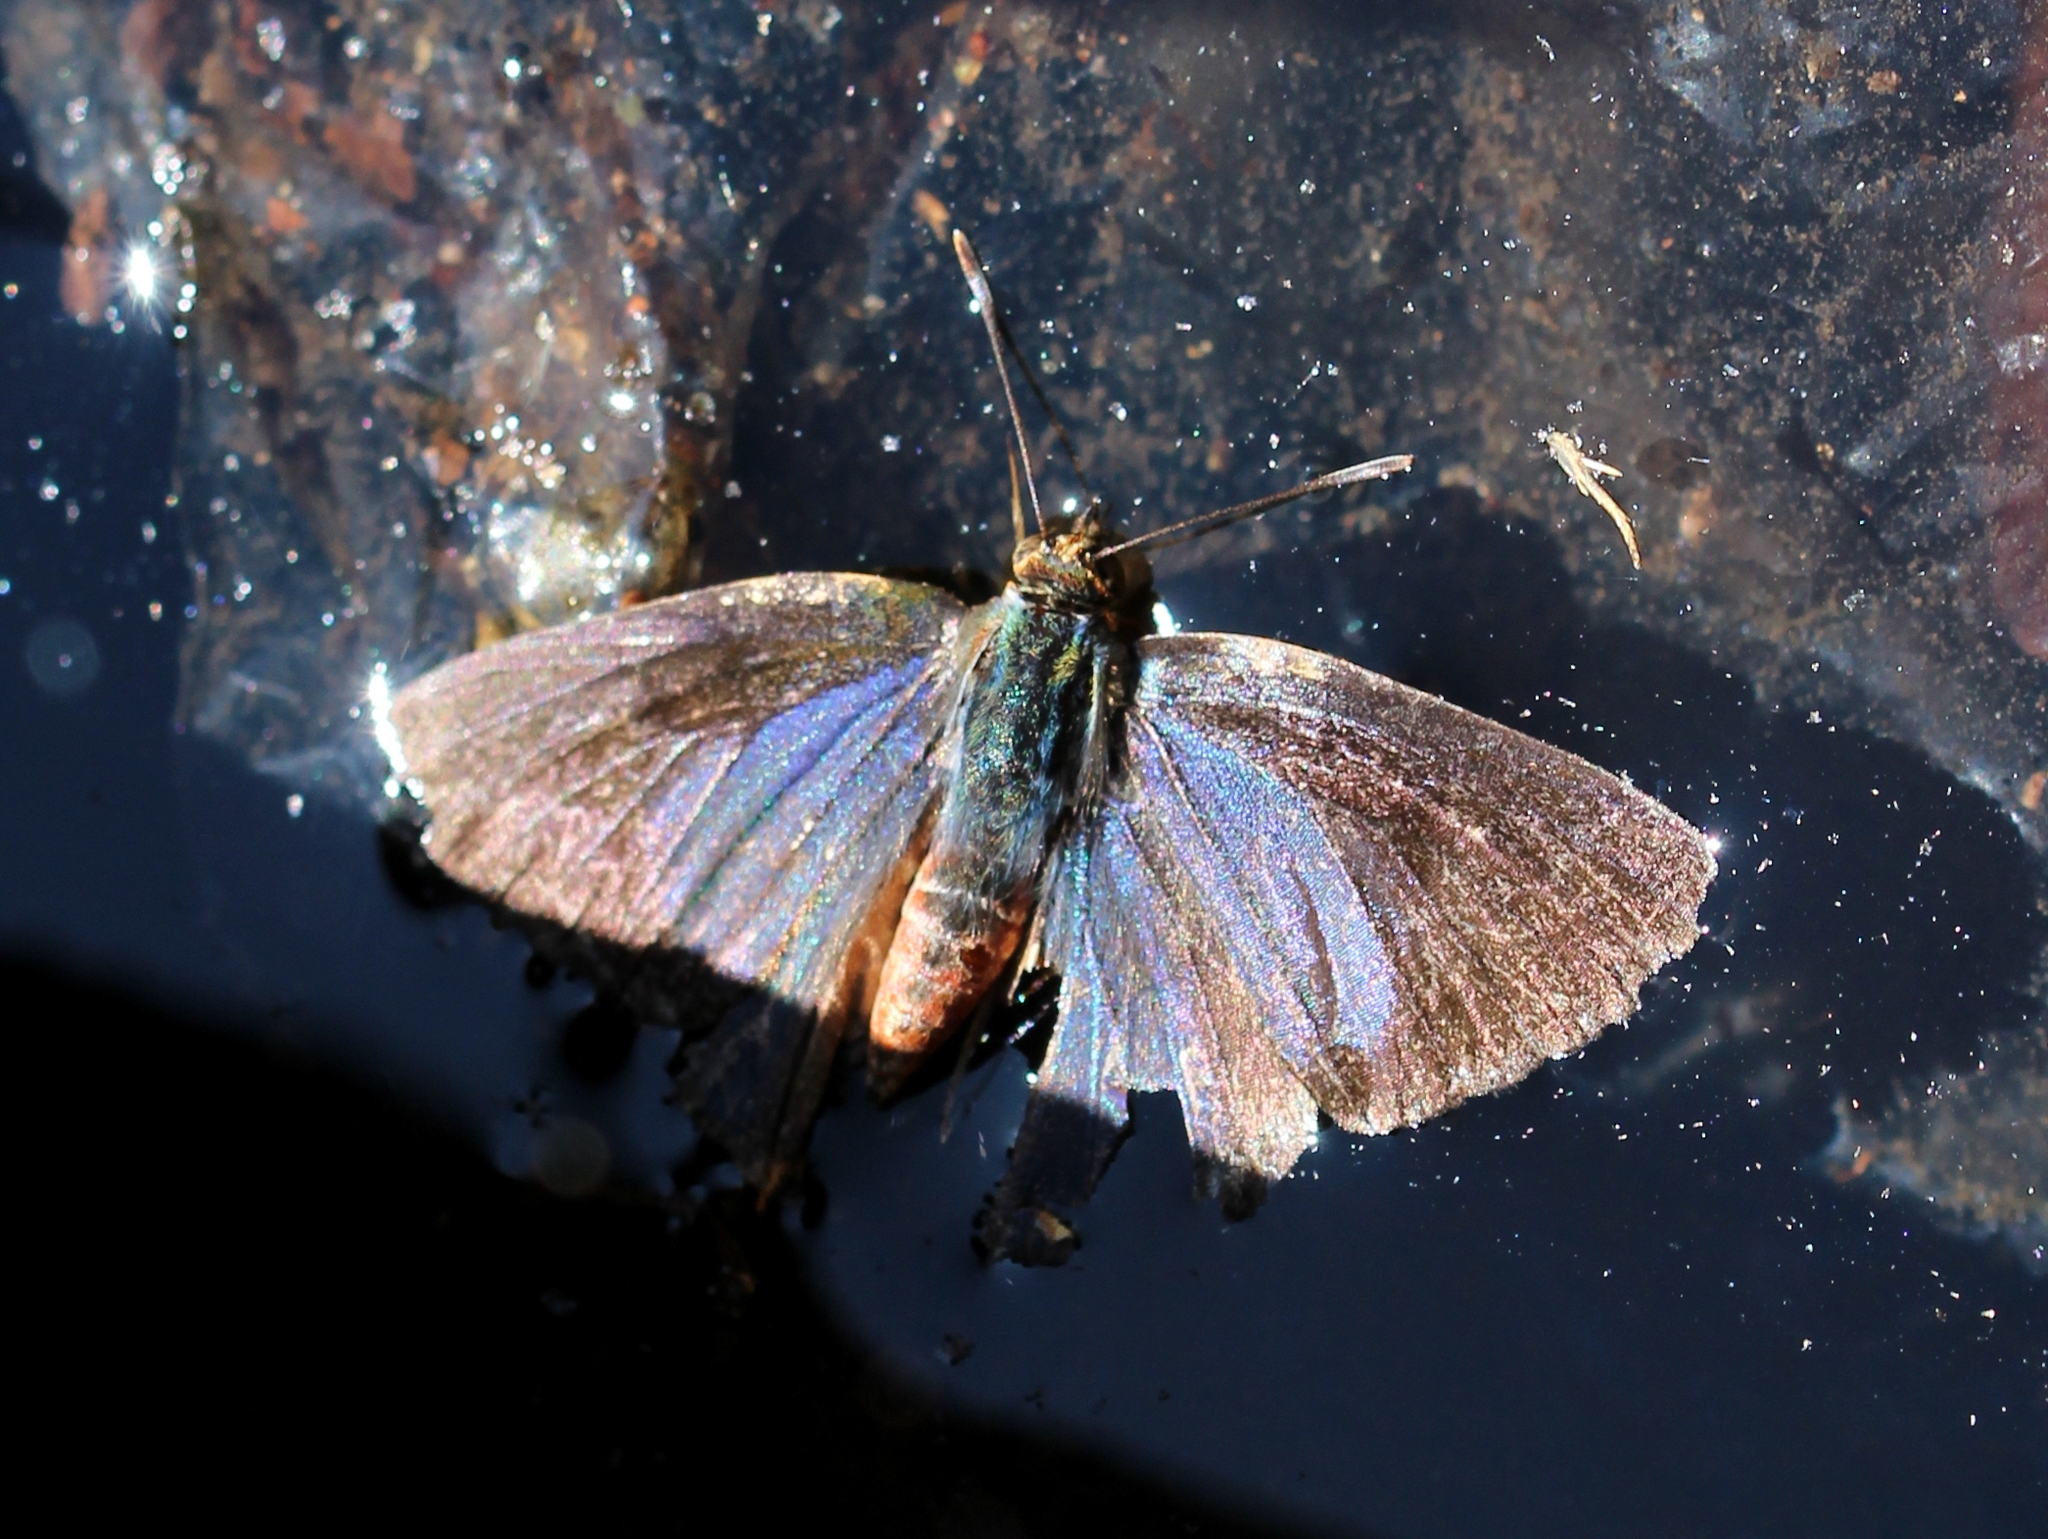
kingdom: Animalia
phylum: Arthropoda
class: Insecta
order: Lepidoptera
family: Lycaenidae
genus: Cigaritis
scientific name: Cigaritis lohita
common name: Long-banded silverline
